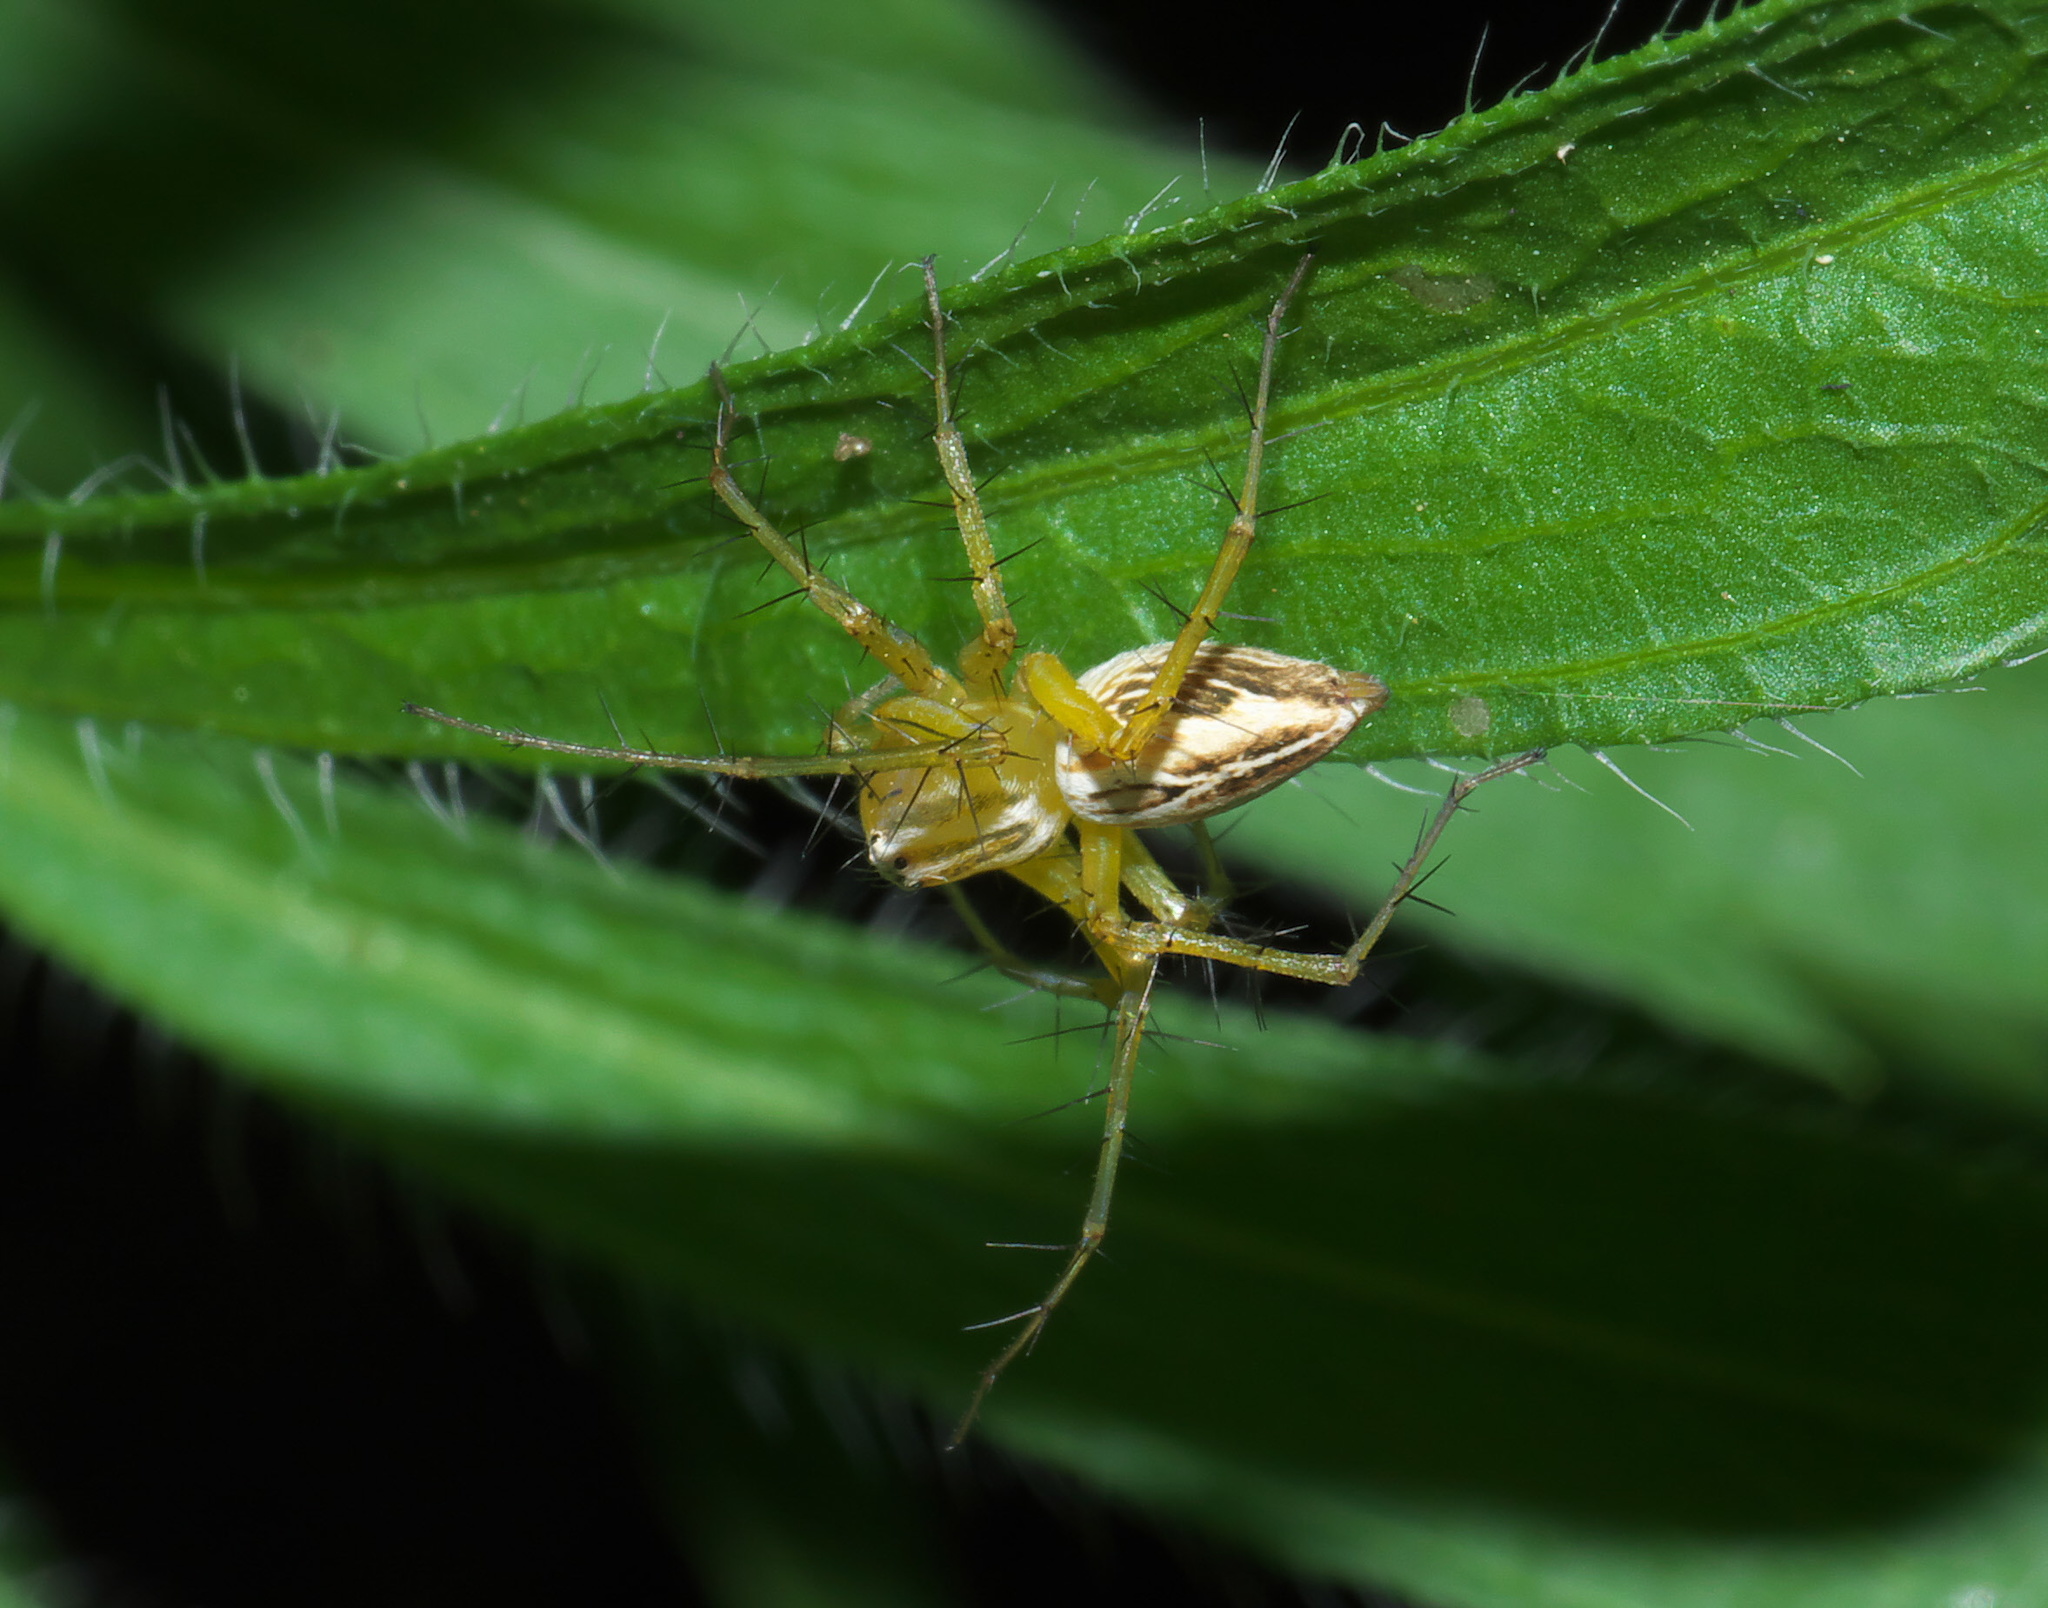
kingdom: Animalia
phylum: Arthropoda
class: Arachnida
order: Araneae
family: Oxyopidae
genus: Oxyopes
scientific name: Oxyopes salticus
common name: Lynx spiders
